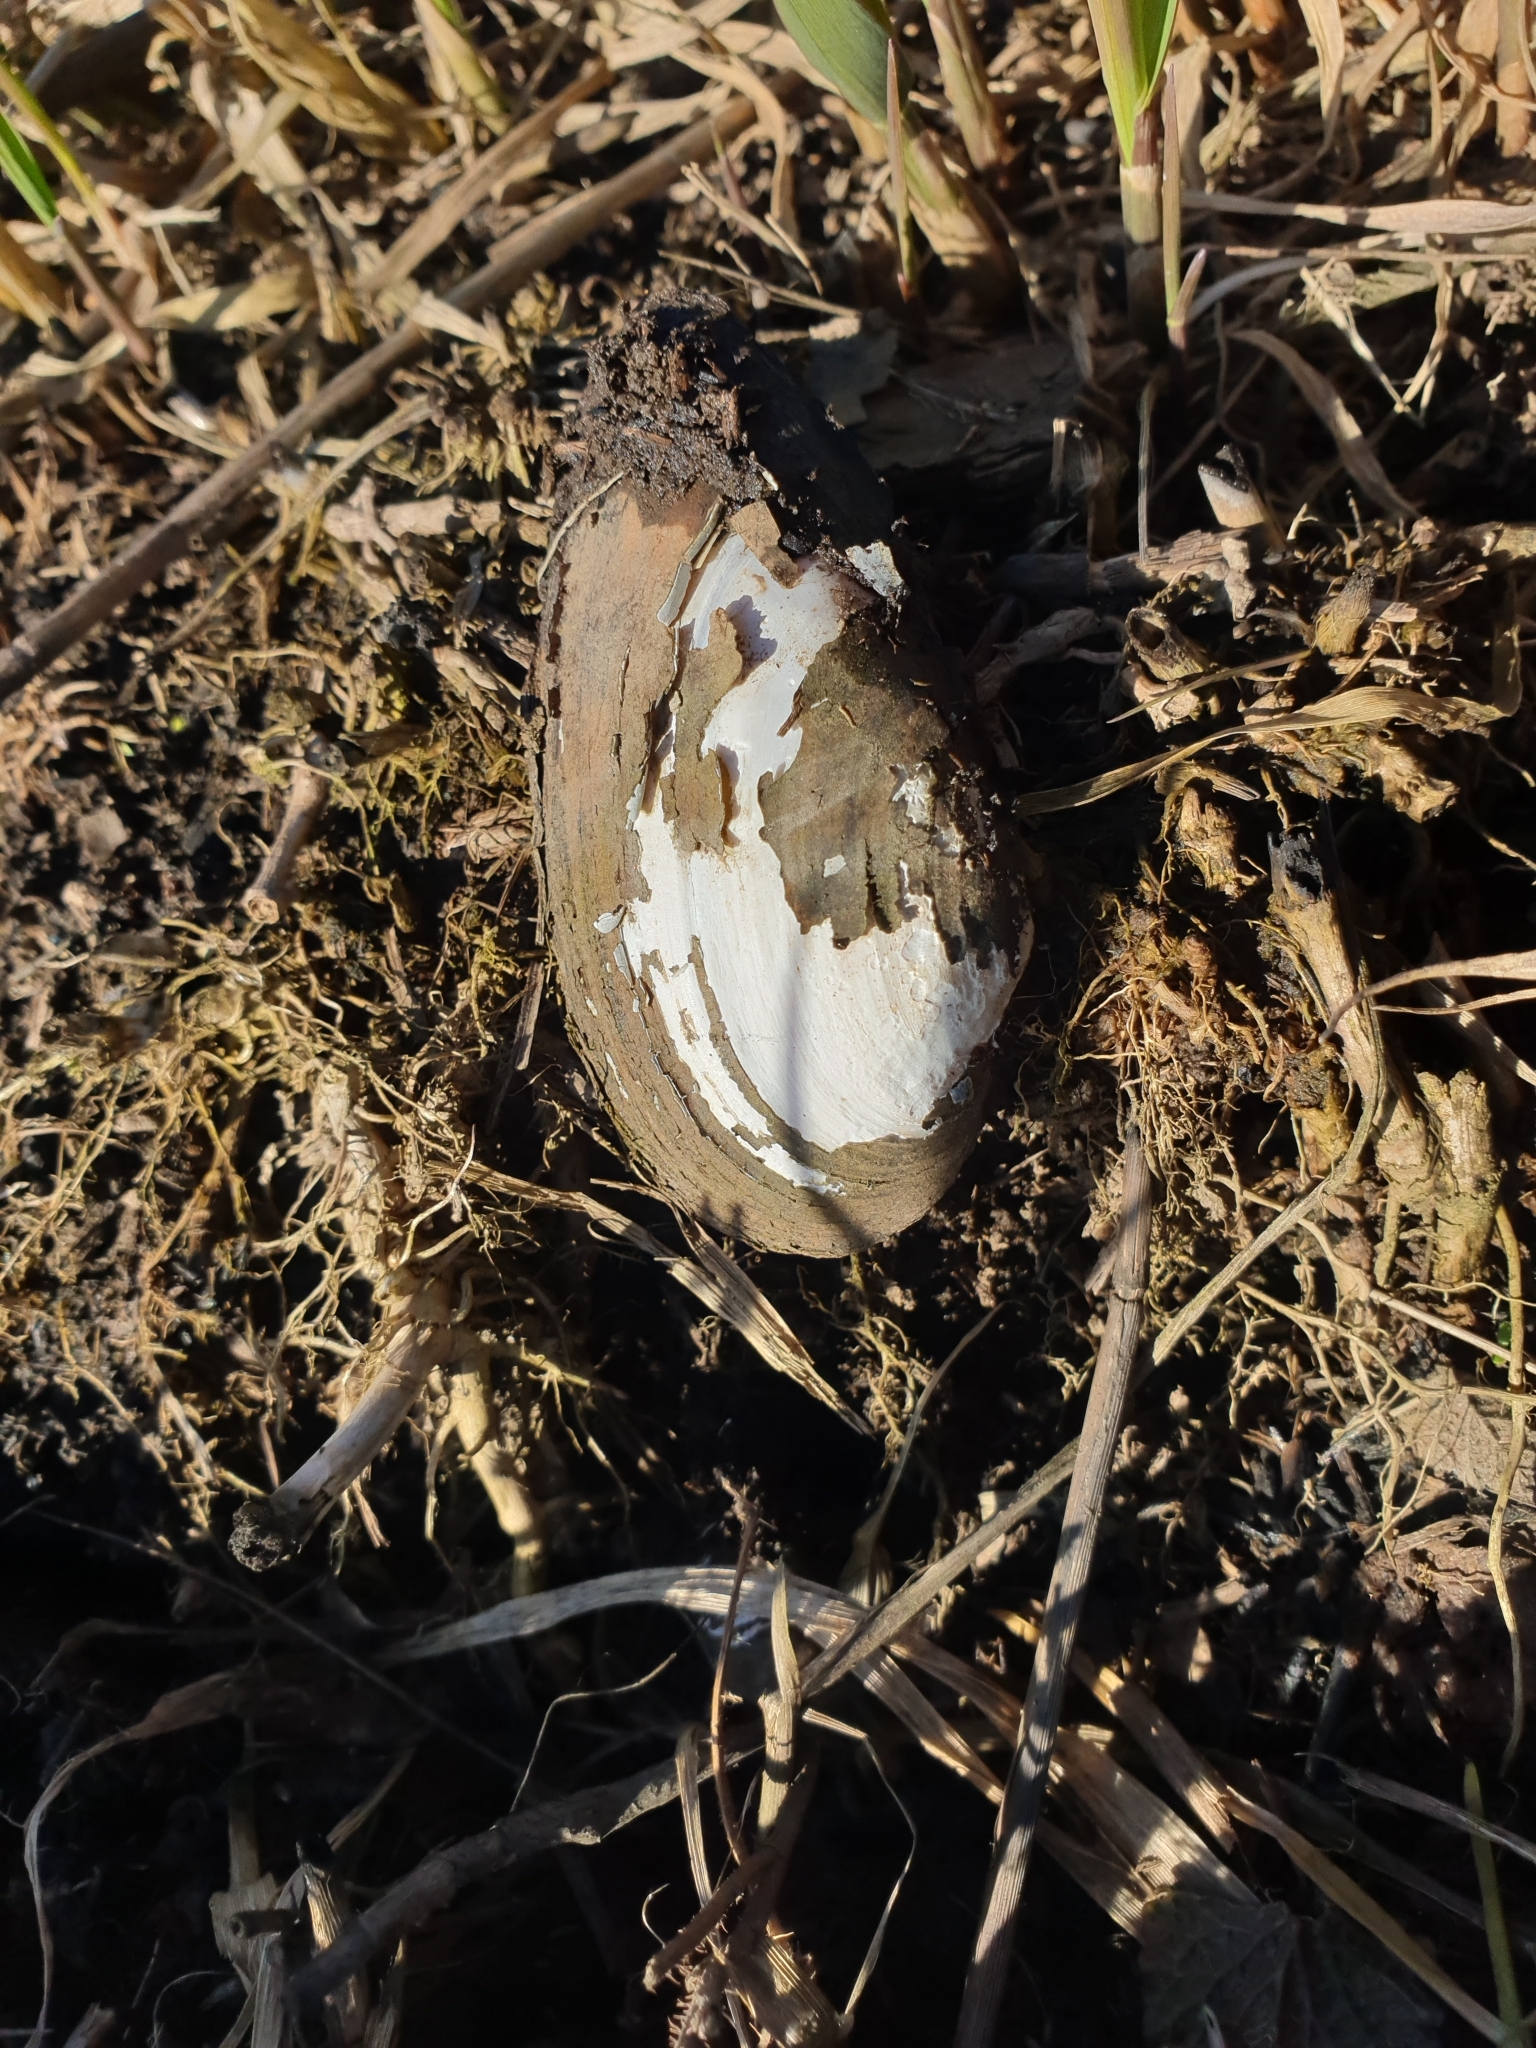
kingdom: Animalia
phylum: Mollusca
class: Bivalvia
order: Unionida
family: Unionidae
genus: Unio
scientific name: Unio tumidus
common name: Swollen river mussel
